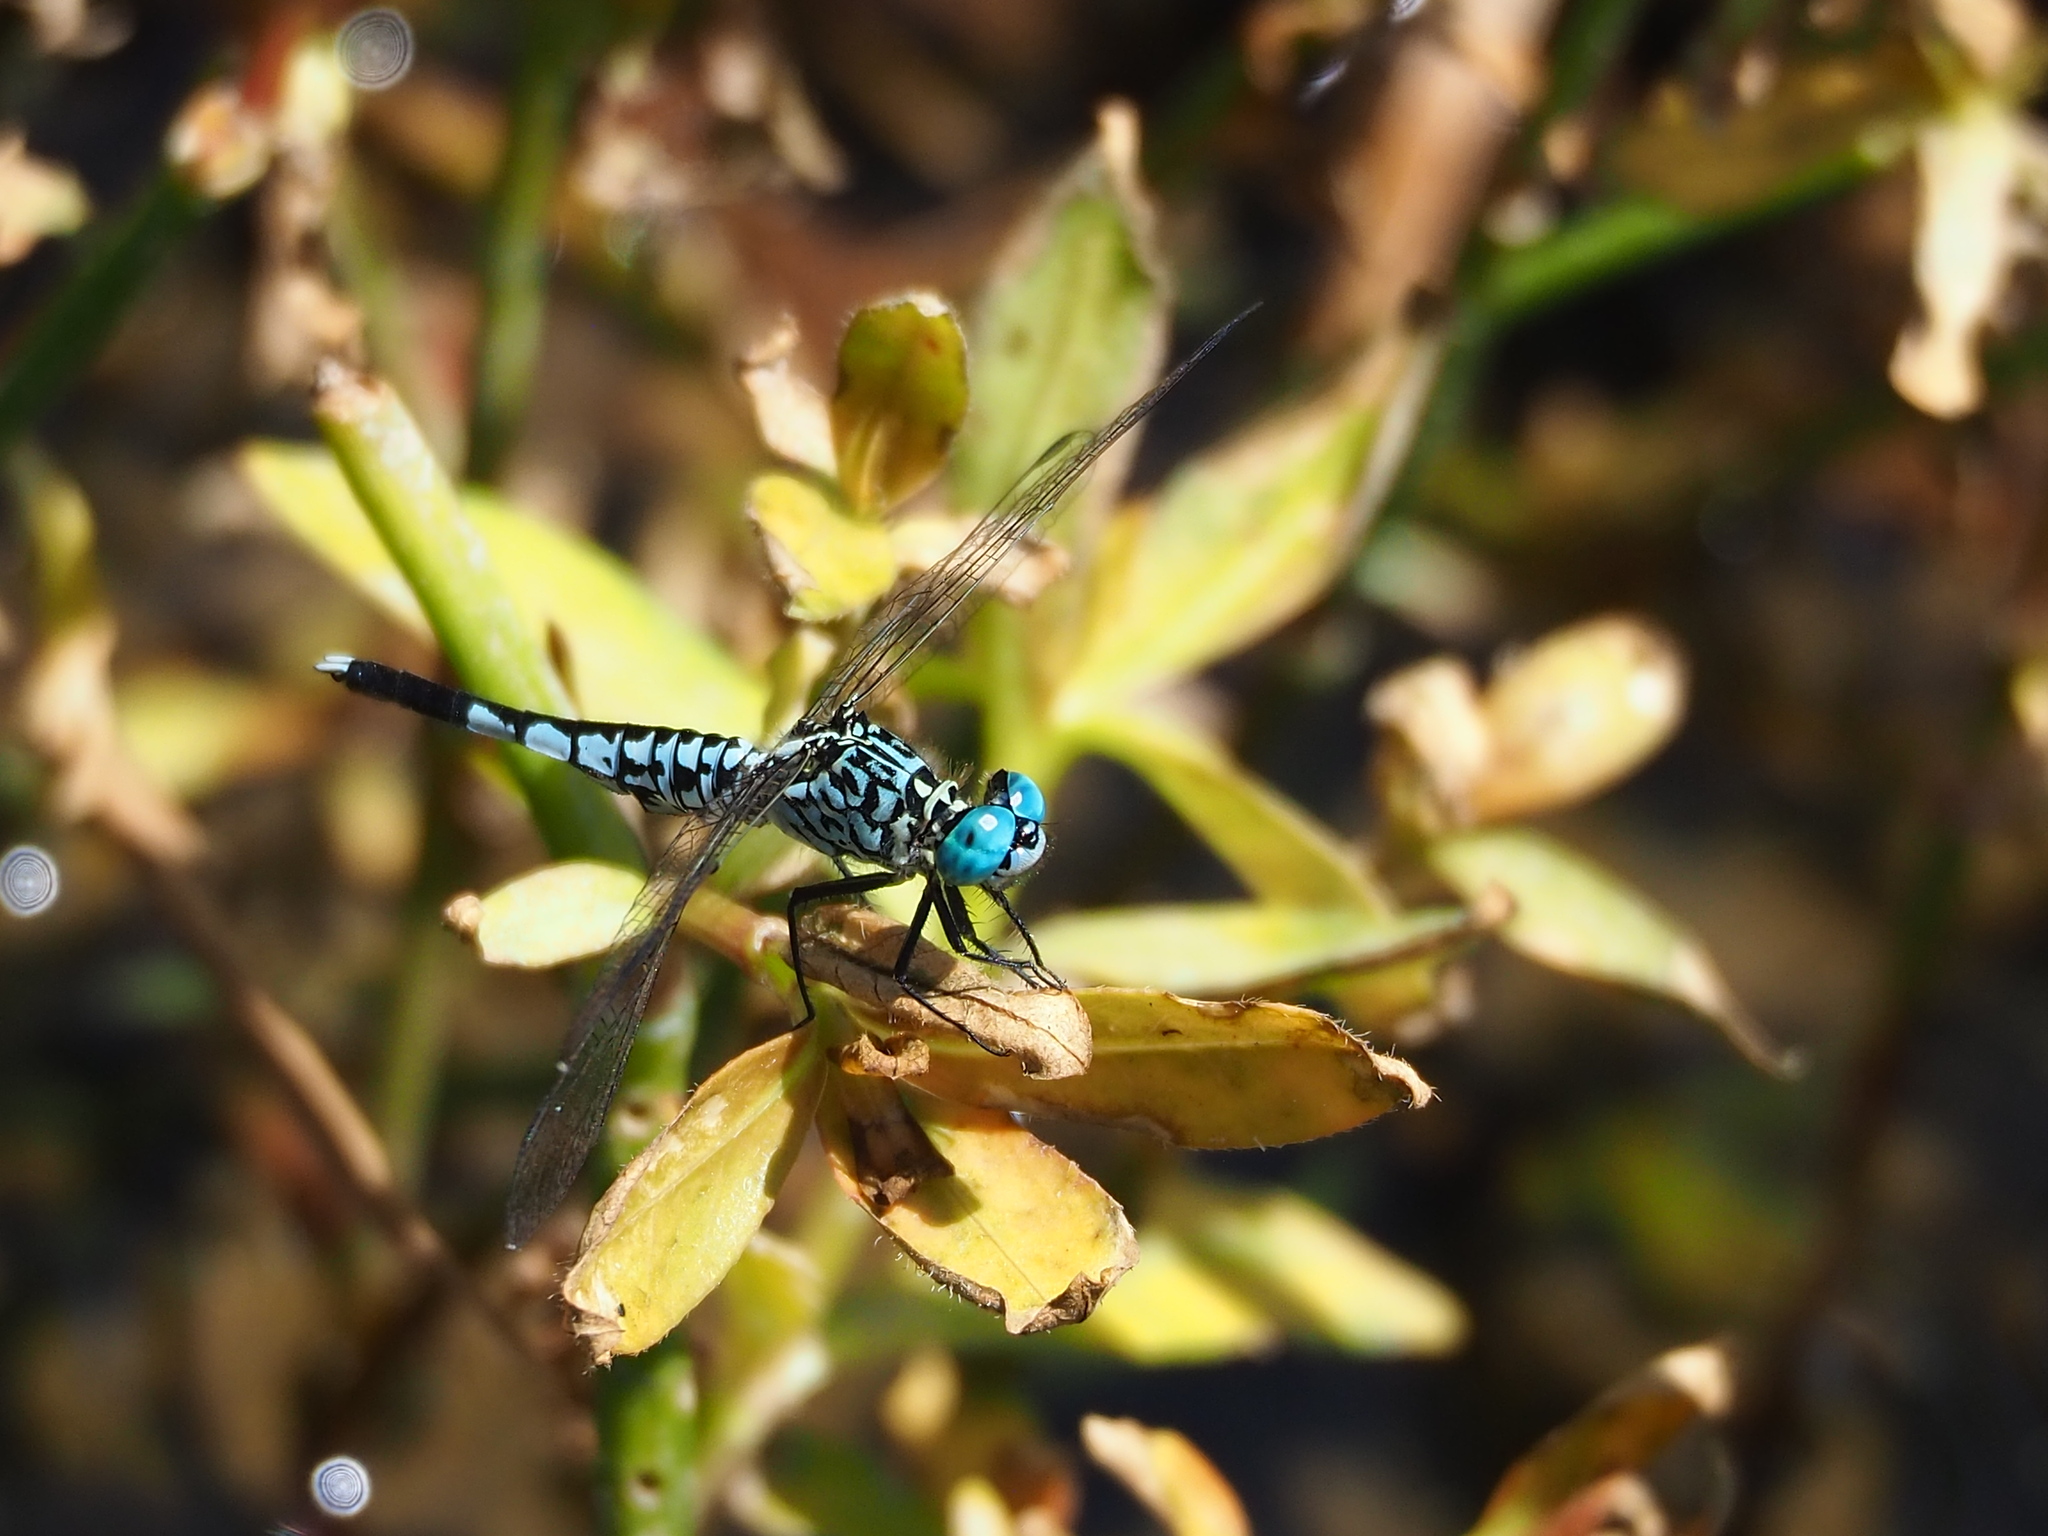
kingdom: Animalia
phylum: Arthropoda
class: Insecta
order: Odonata
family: Libellulidae
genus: Acisoma
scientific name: Acisoma panorpoides
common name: Asian pintail
